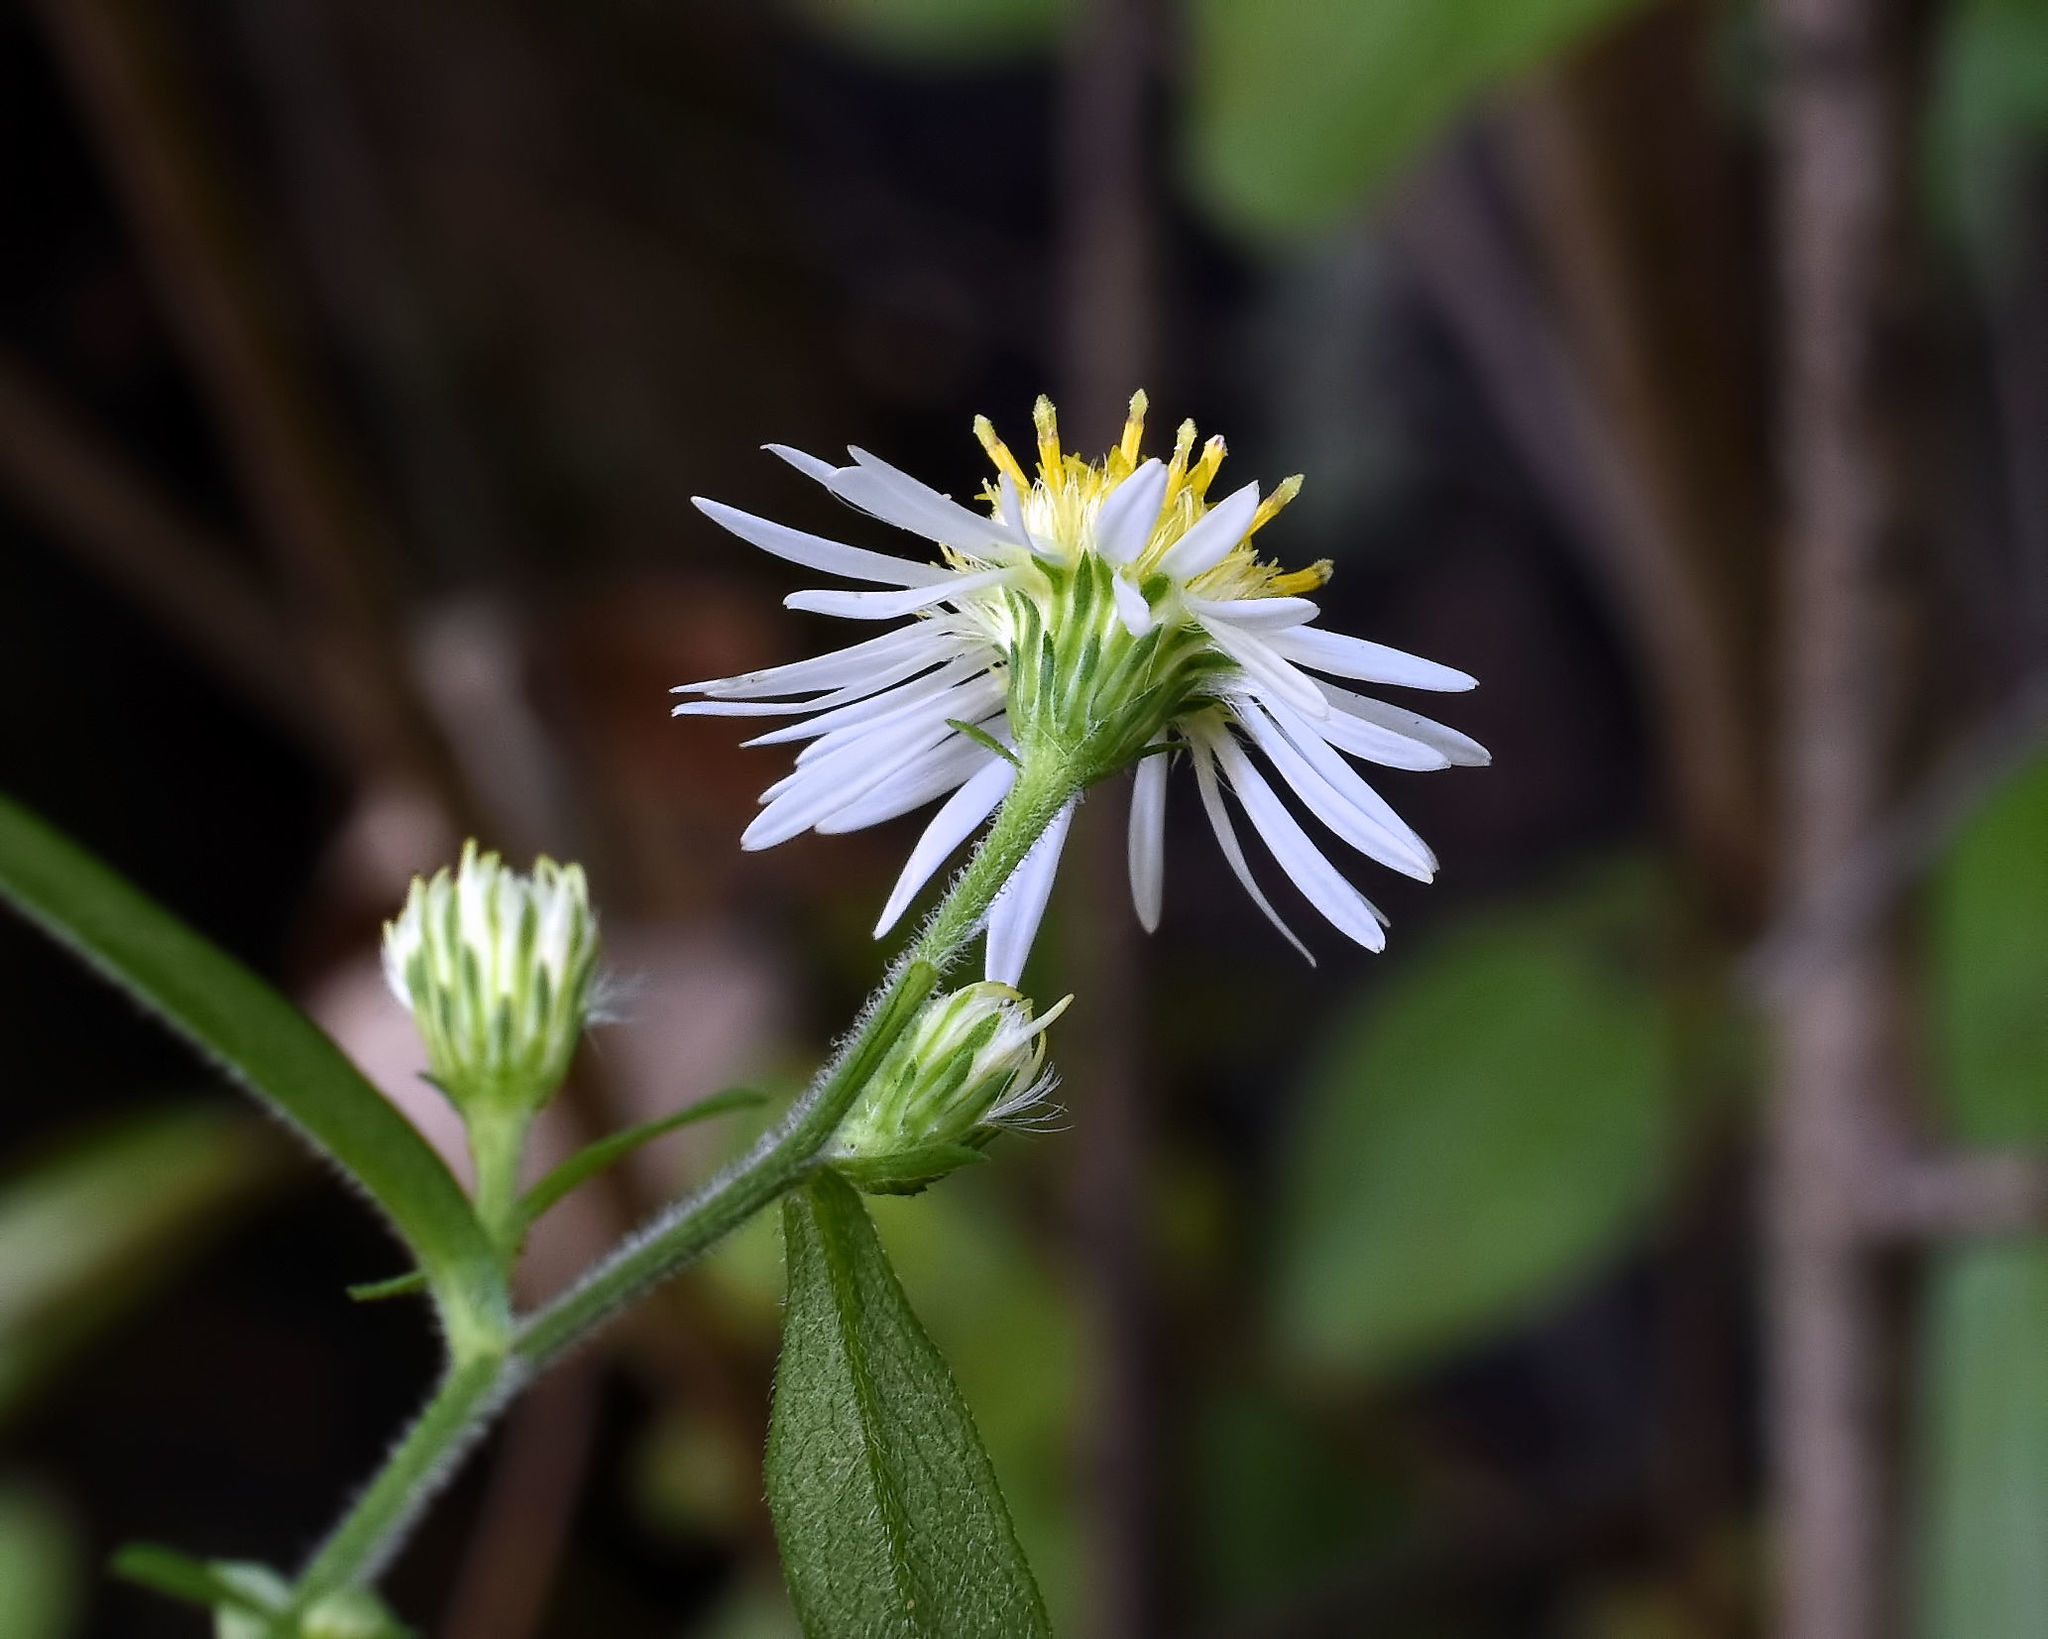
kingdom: Plantae
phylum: Tracheophyta
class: Magnoliopsida
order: Asterales
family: Asteraceae
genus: Symphyotrichum
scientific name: Symphyotrichum ontarionis
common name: Bottomland aster
